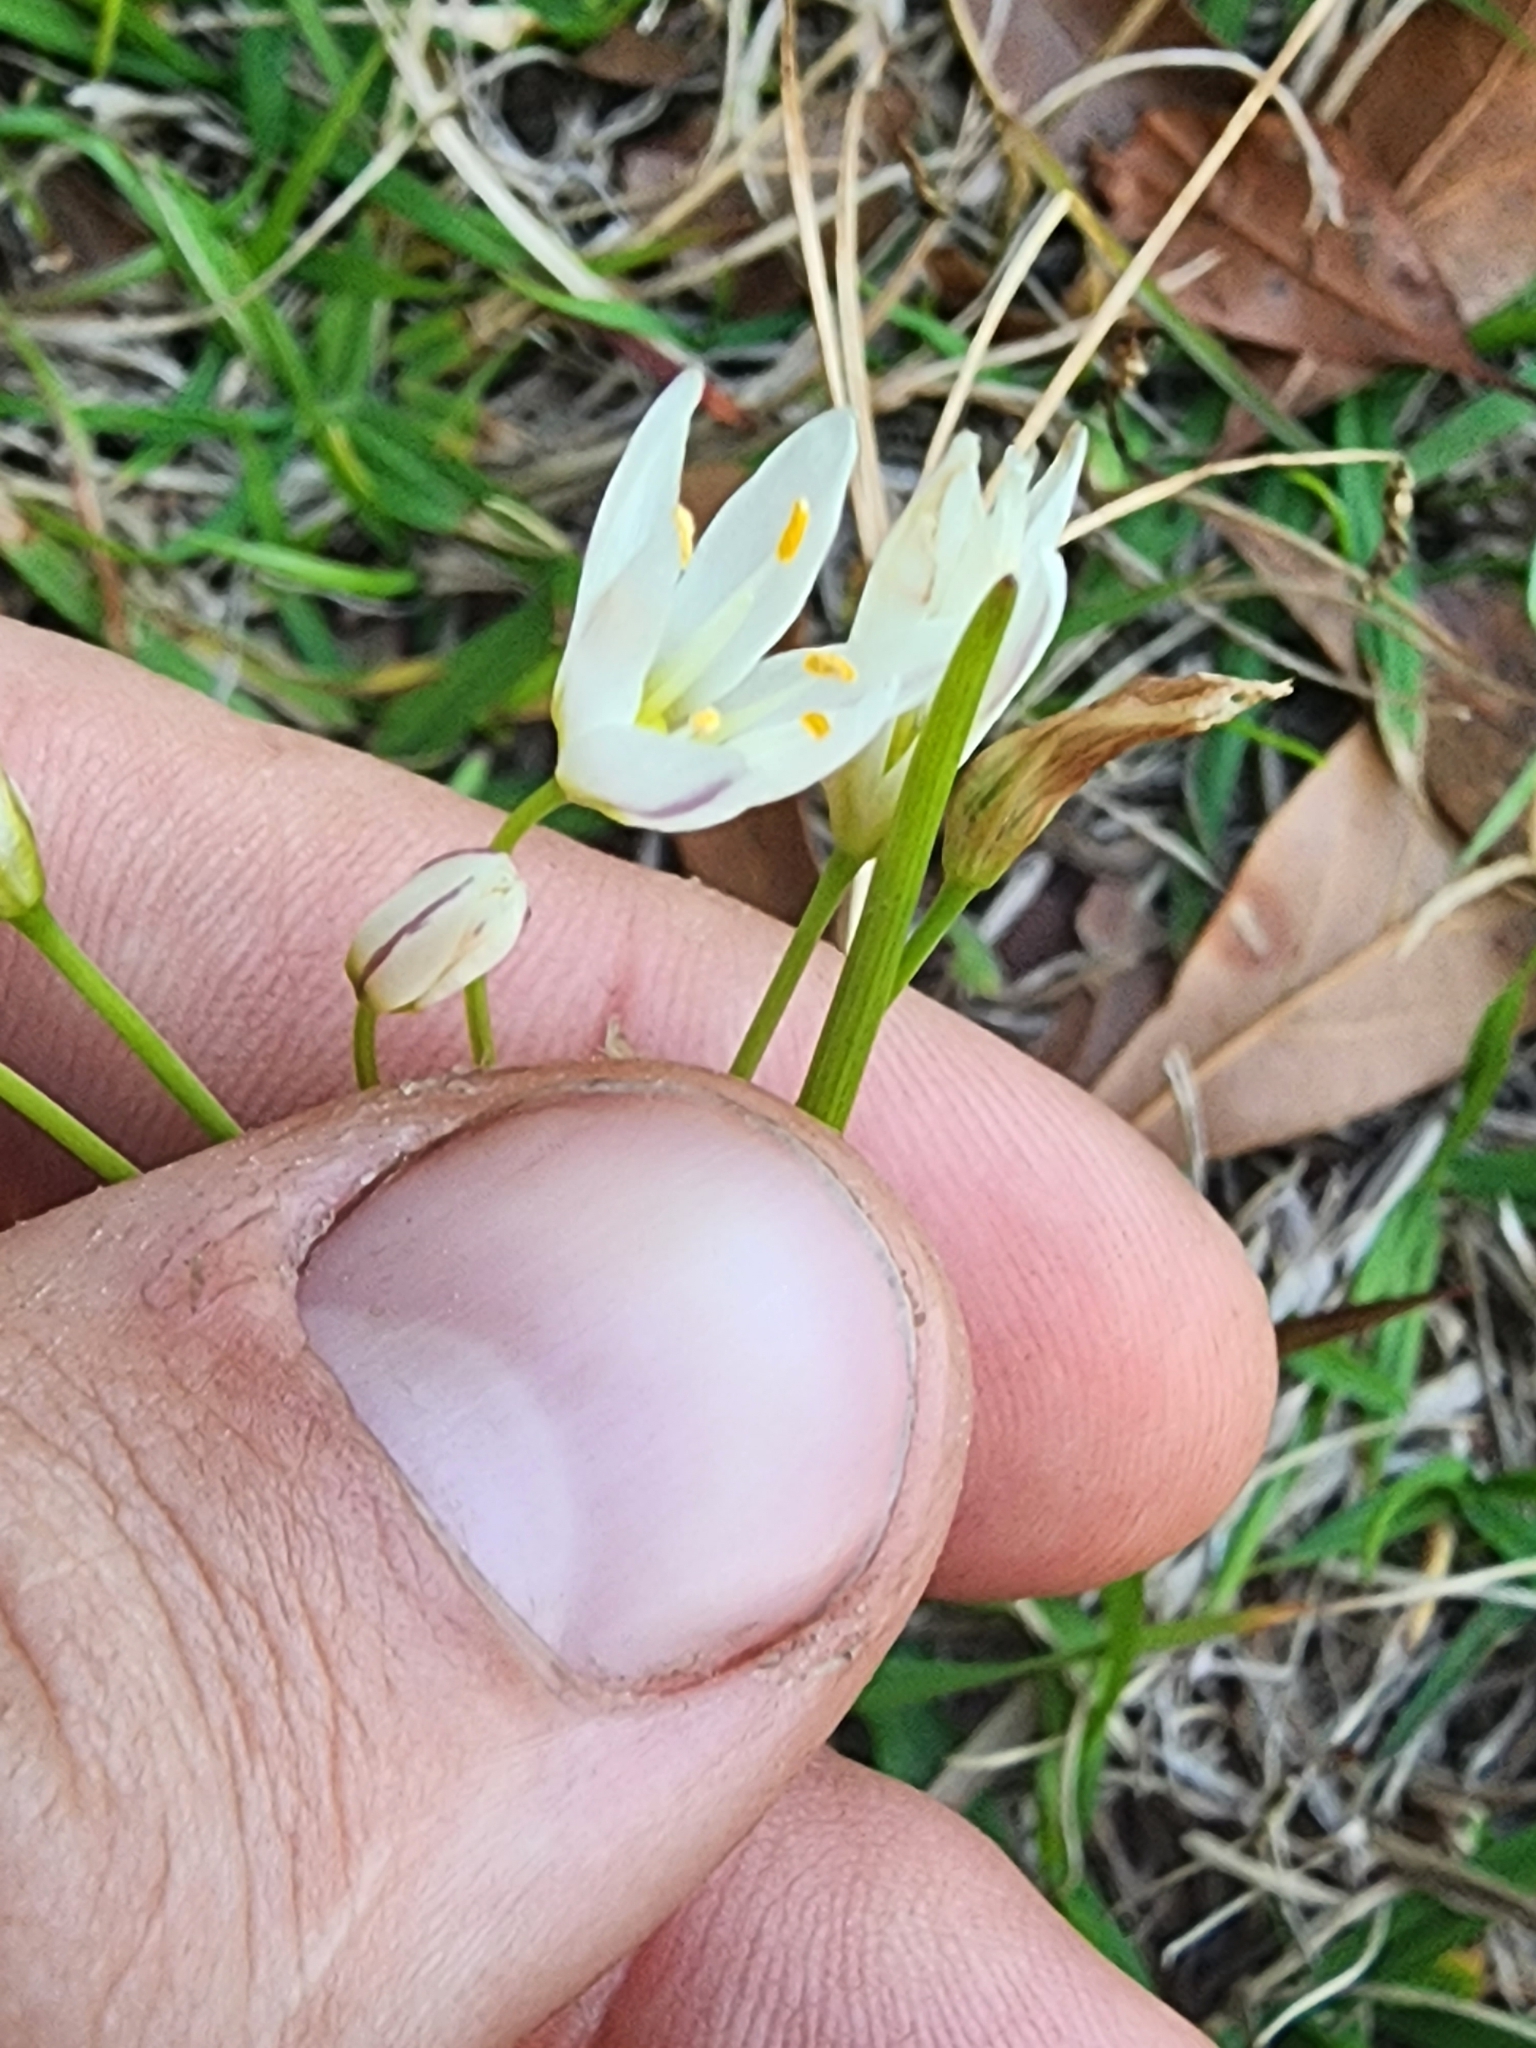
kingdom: Plantae
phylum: Tracheophyta
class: Liliopsida
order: Asparagales
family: Amaryllidaceae
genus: Nothoscordum
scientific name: Nothoscordum bivalve
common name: Crow-poison
